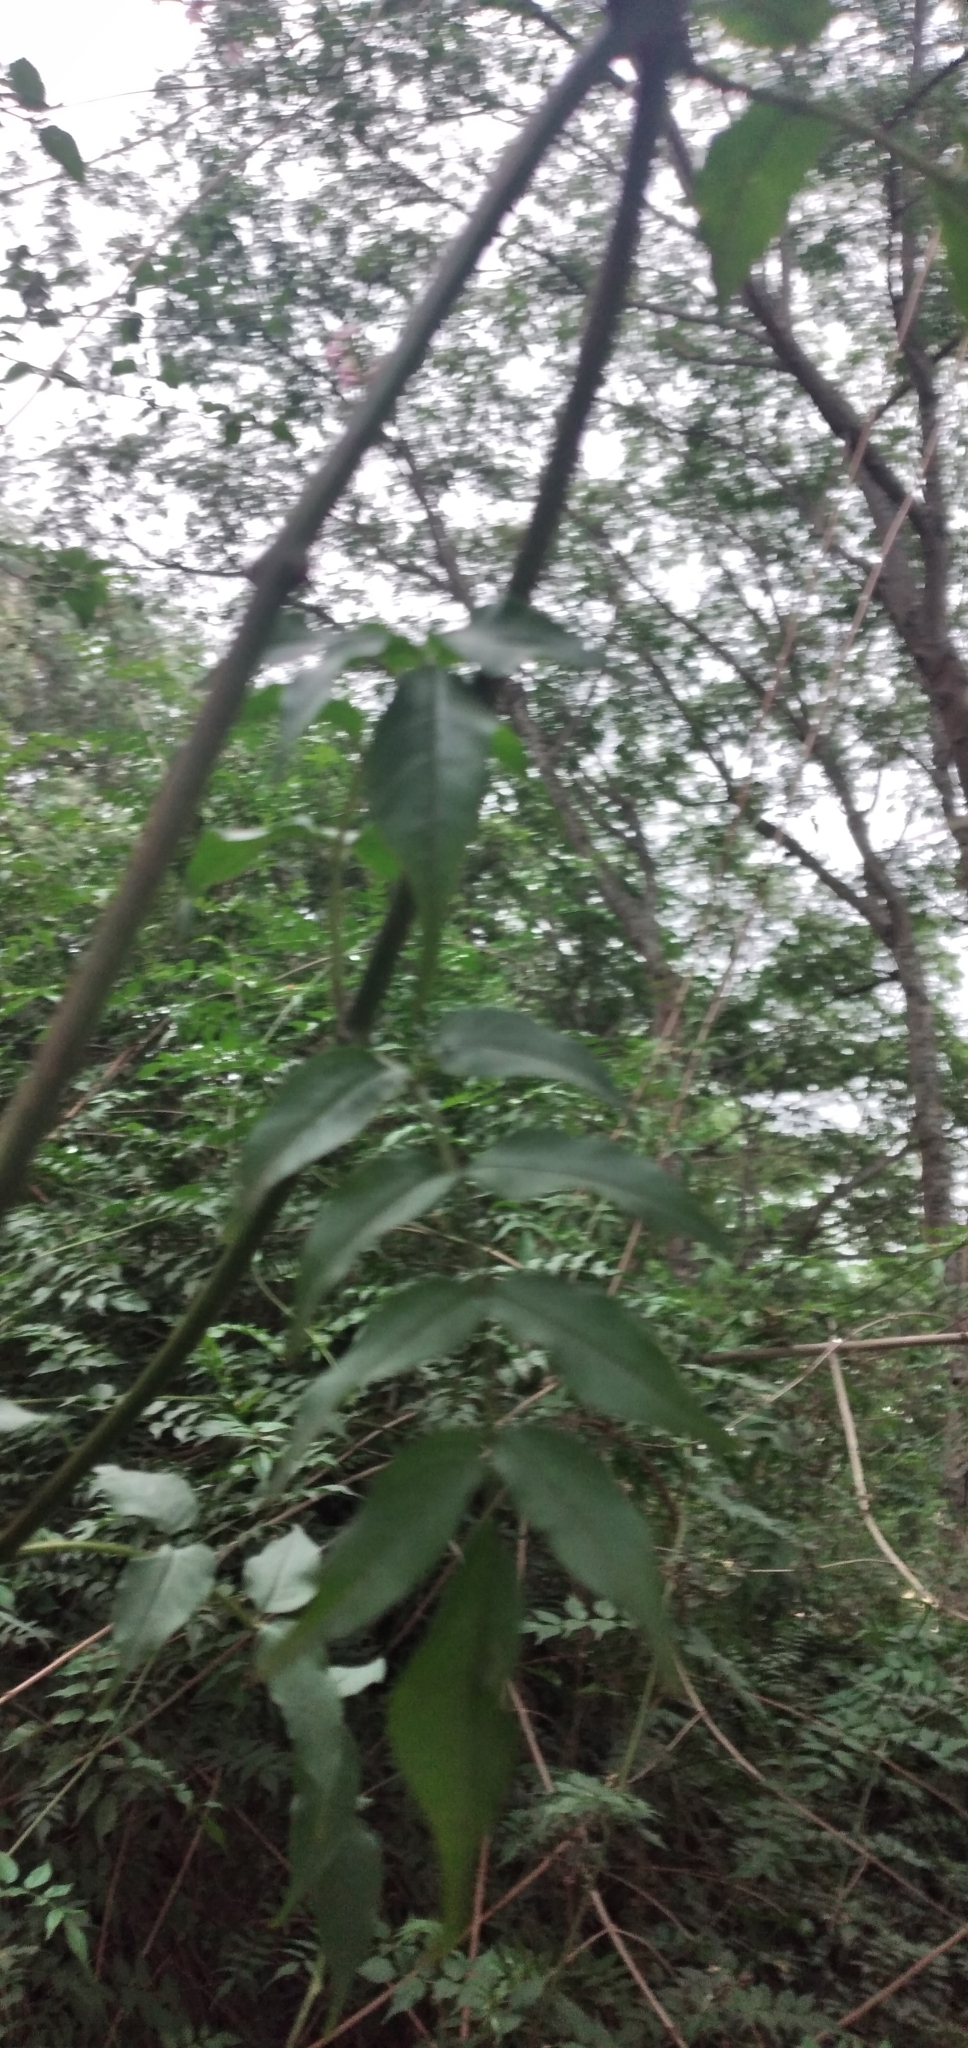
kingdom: Plantae
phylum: Tracheophyta
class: Magnoliopsida
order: Lamiales
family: Bignoniaceae
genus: Podranea
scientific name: Podranea ricasoliana
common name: Zimbabwe creeper
